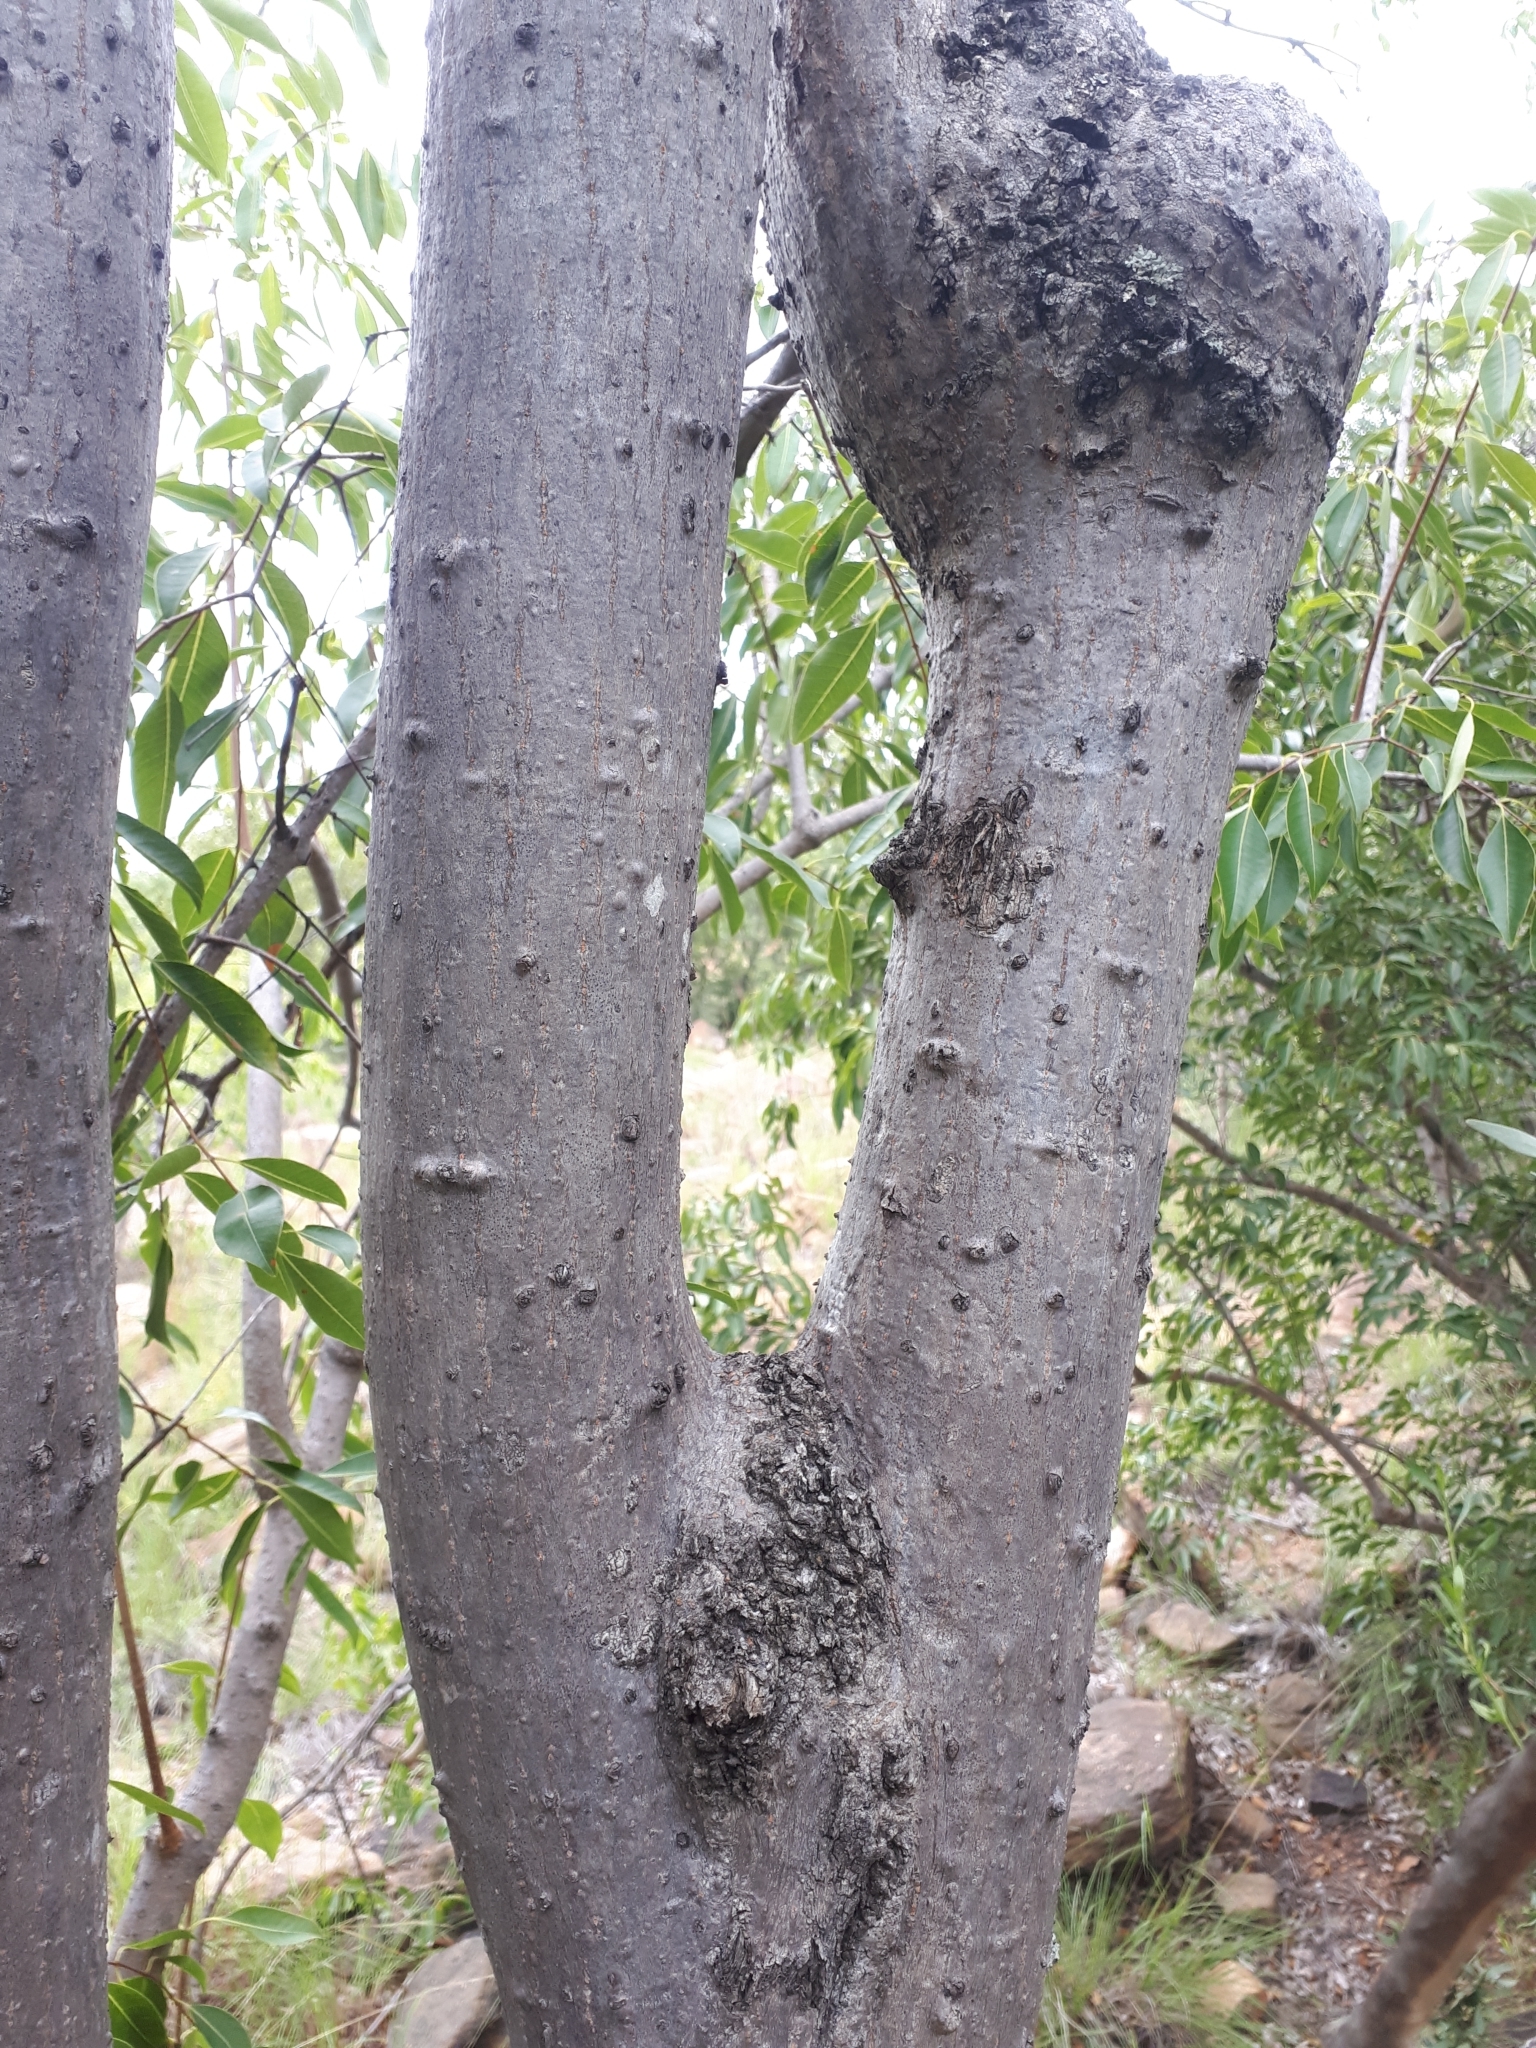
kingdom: Plantae
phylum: Tracheophyta
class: Magnoliopsida
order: Sapindales
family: Kirkiaceae
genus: Kirkia
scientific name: Kirkia acuminata
